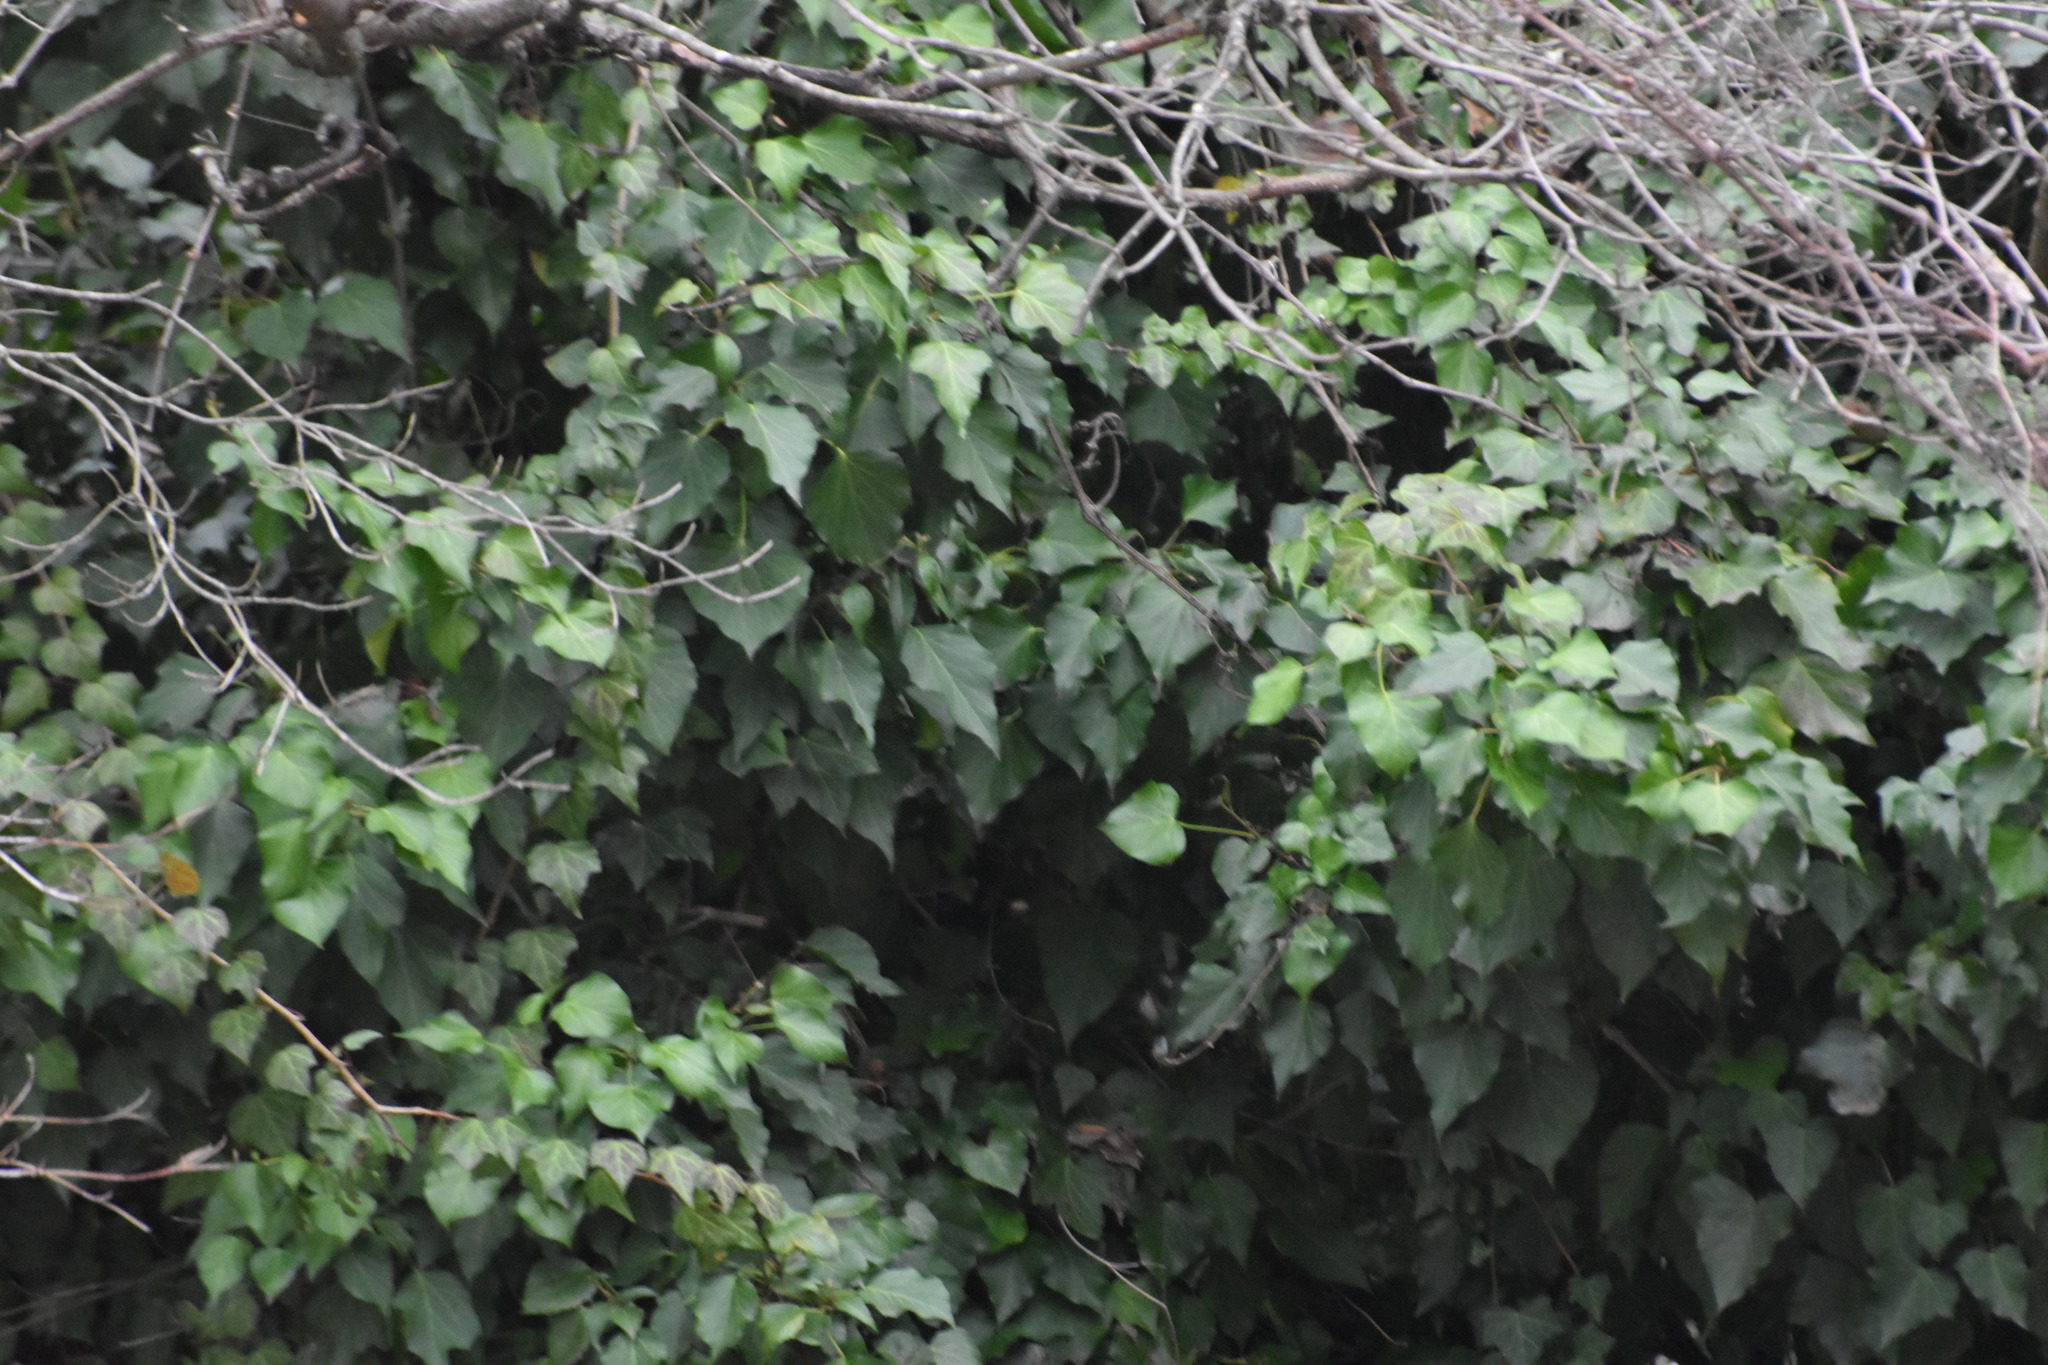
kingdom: Plantae
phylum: Tracheophyta
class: Magnoliopsida
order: Apiales
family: Araliaceae
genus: Hedera
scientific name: Hedera helix
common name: Ivy
